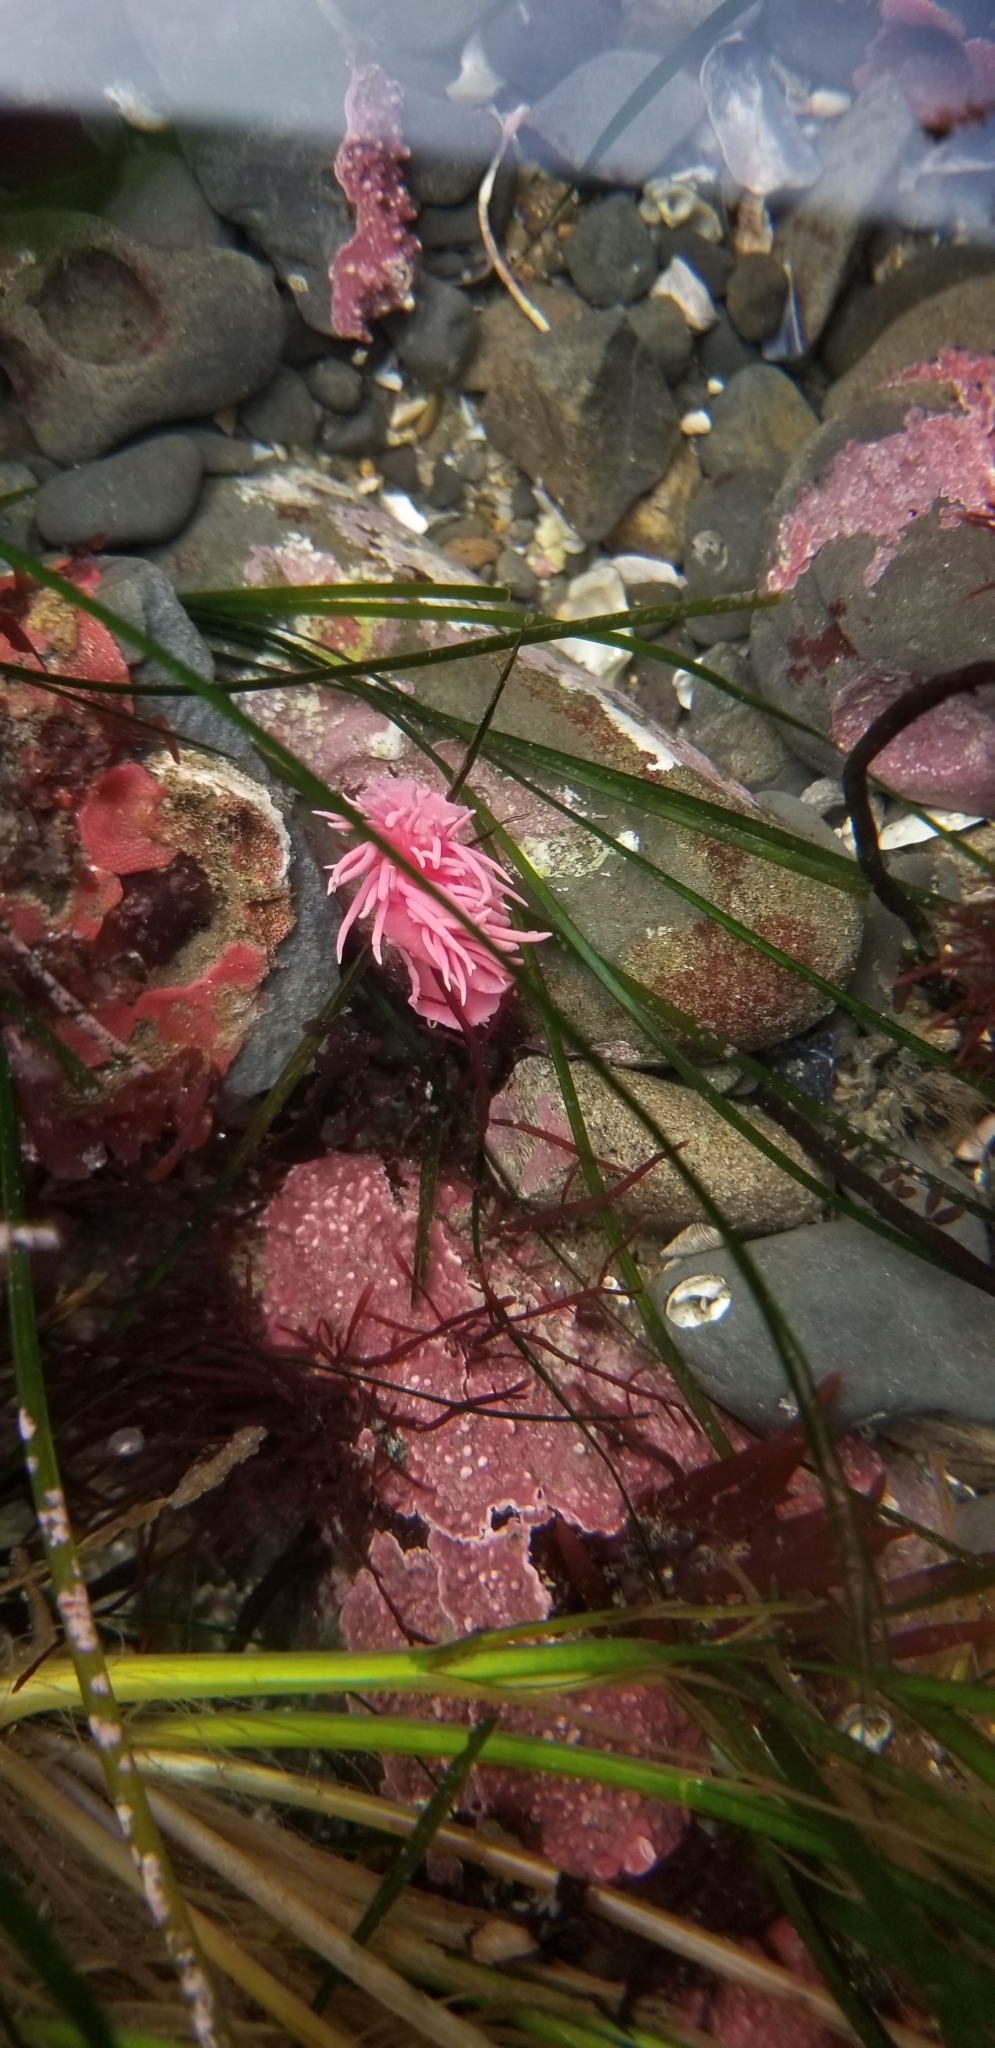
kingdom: Animalia
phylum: Mollusca
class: Gastropoda
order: Nudibranchia
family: Goniodorididae
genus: Okenia
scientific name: Okenia
